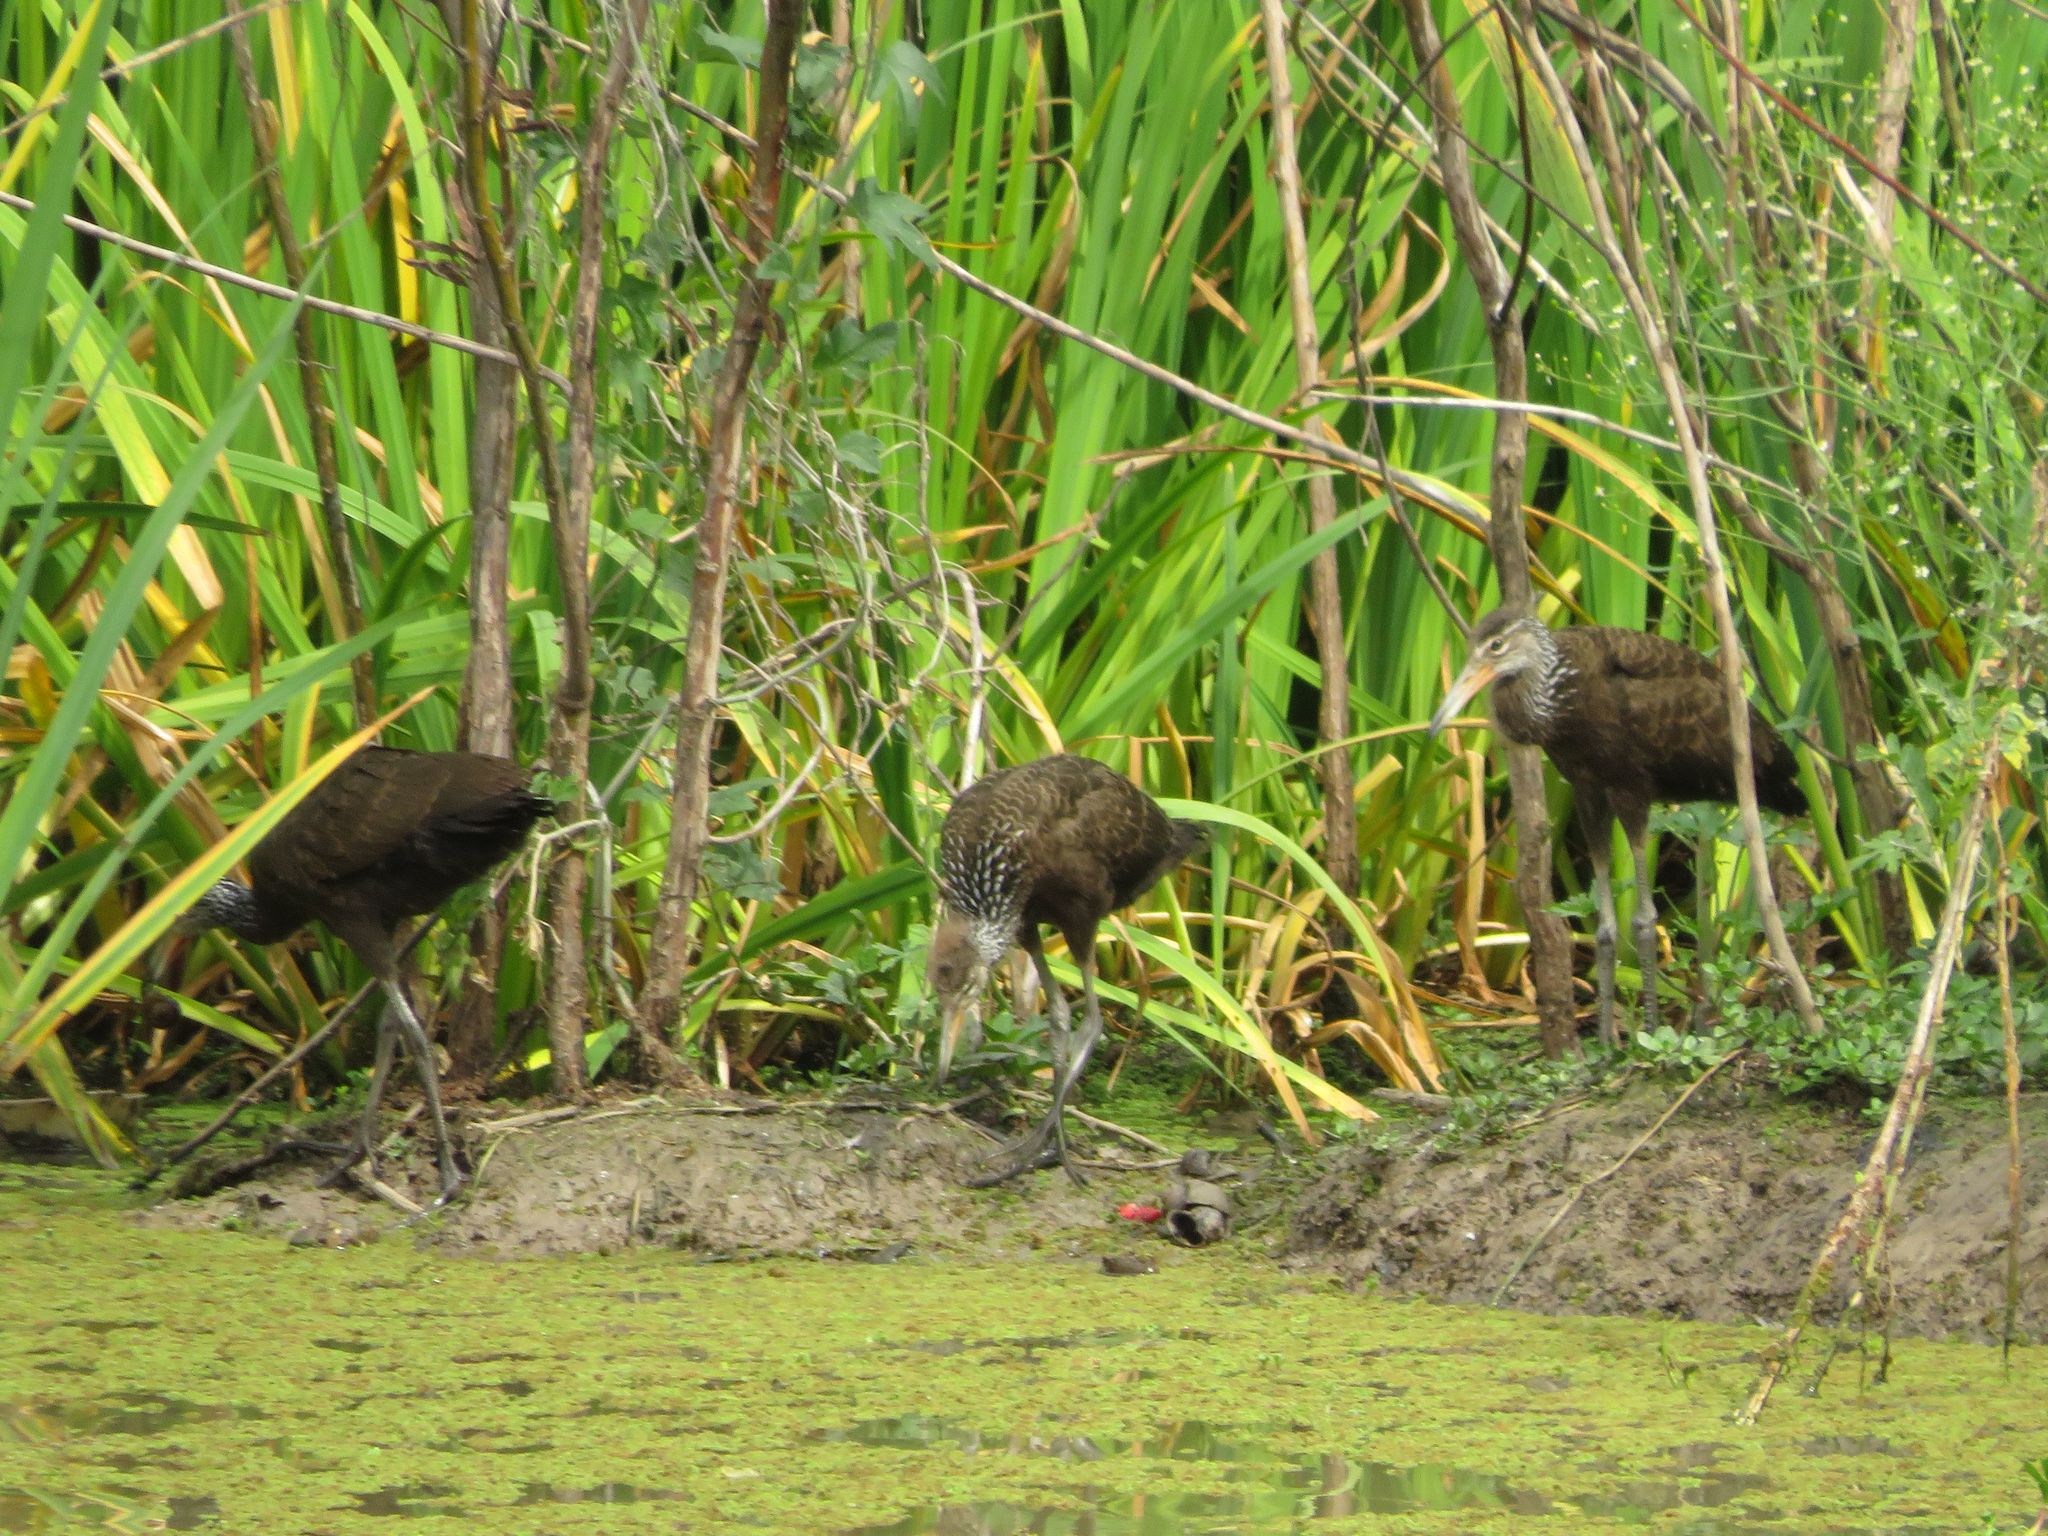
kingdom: Animalia
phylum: Chordata
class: Aves
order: Gruiformes
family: Aramidae
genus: Aramus
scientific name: Aramus guarauna
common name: Limpkin
